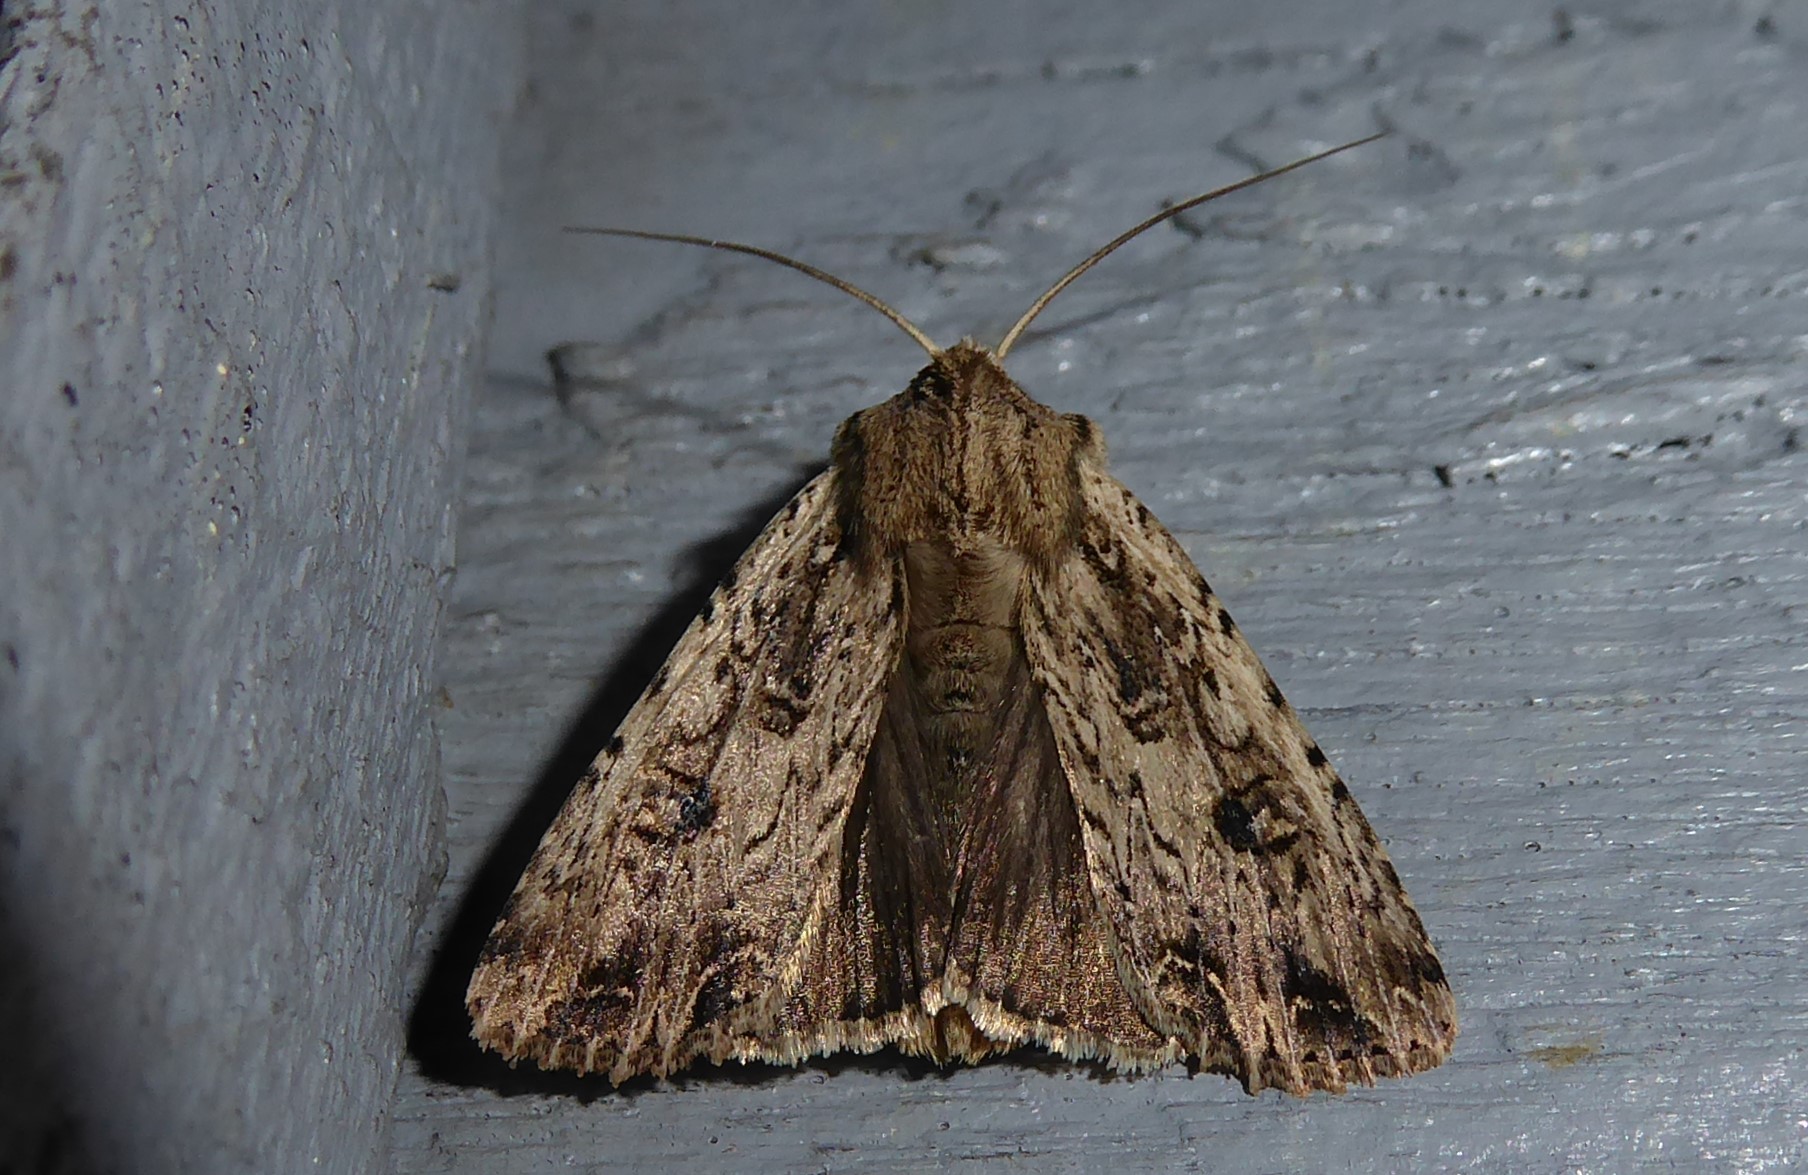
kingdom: Animalia
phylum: Arthropoda
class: Insecta
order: Lepidoptera
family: Noctuidae
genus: Ichneutica
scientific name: Ichneutica lignana
